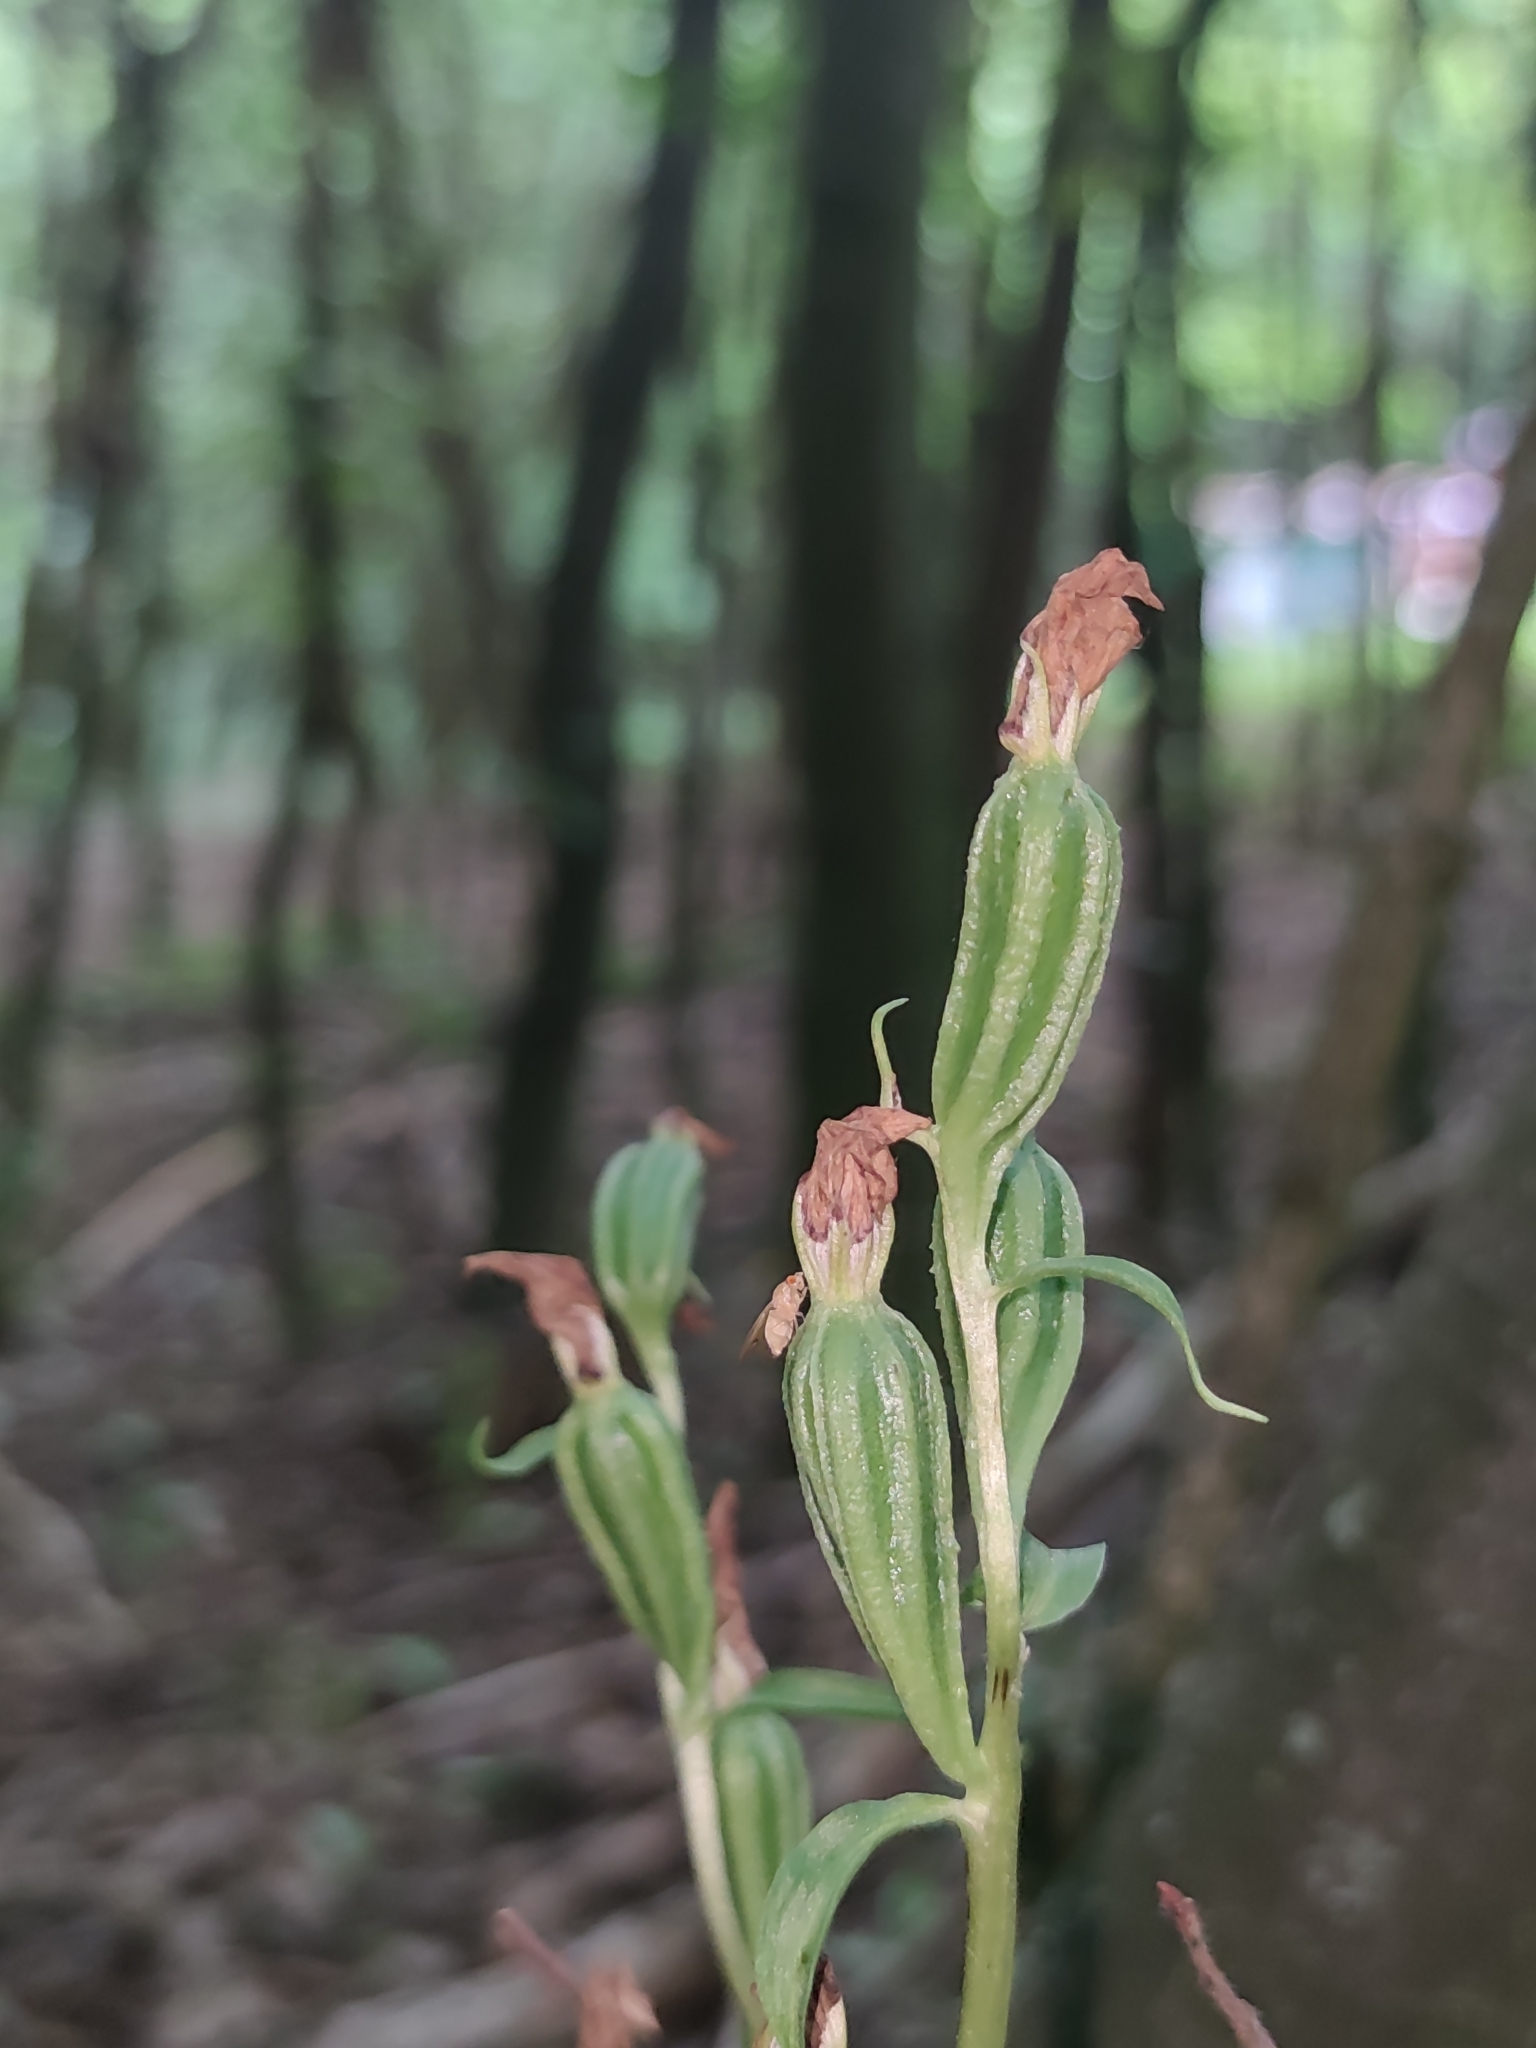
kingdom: Plantae
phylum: Tracheophyta
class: Liliopsida
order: Asparagales
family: Orchidaceae
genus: Cephalanthera
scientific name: Cephalanthera damasonium
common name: White helleborine
